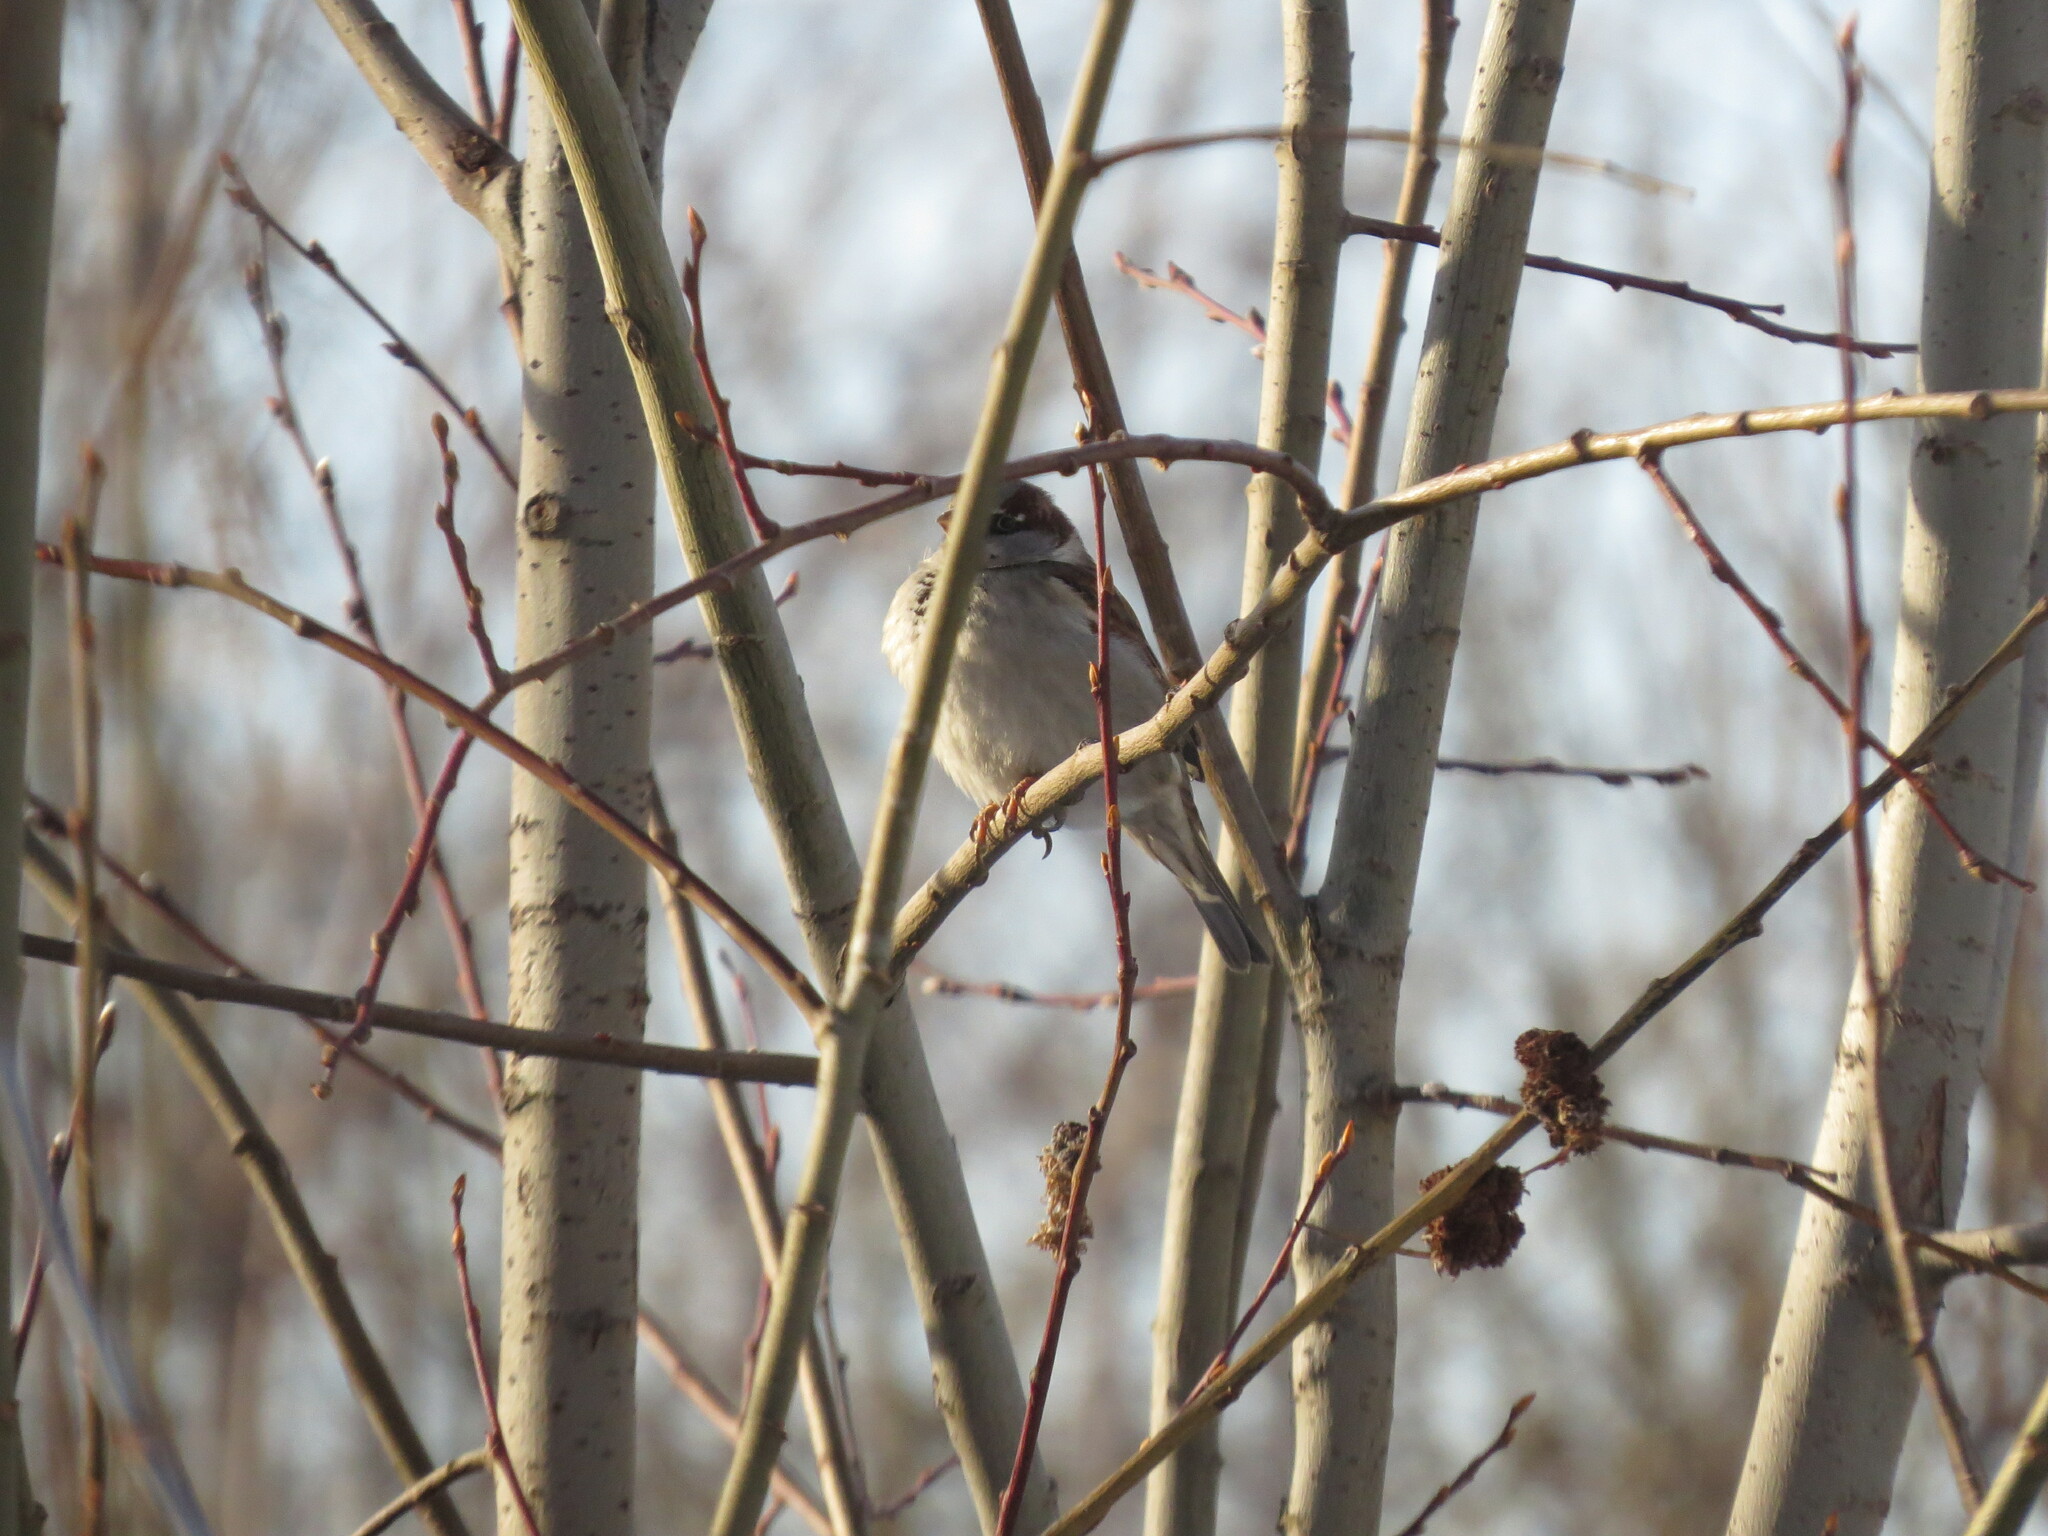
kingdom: Animalia
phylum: Chordata
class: Aves
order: Passeriformes
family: Passeridae
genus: Passer
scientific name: Passer domesticus
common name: House sparrow
